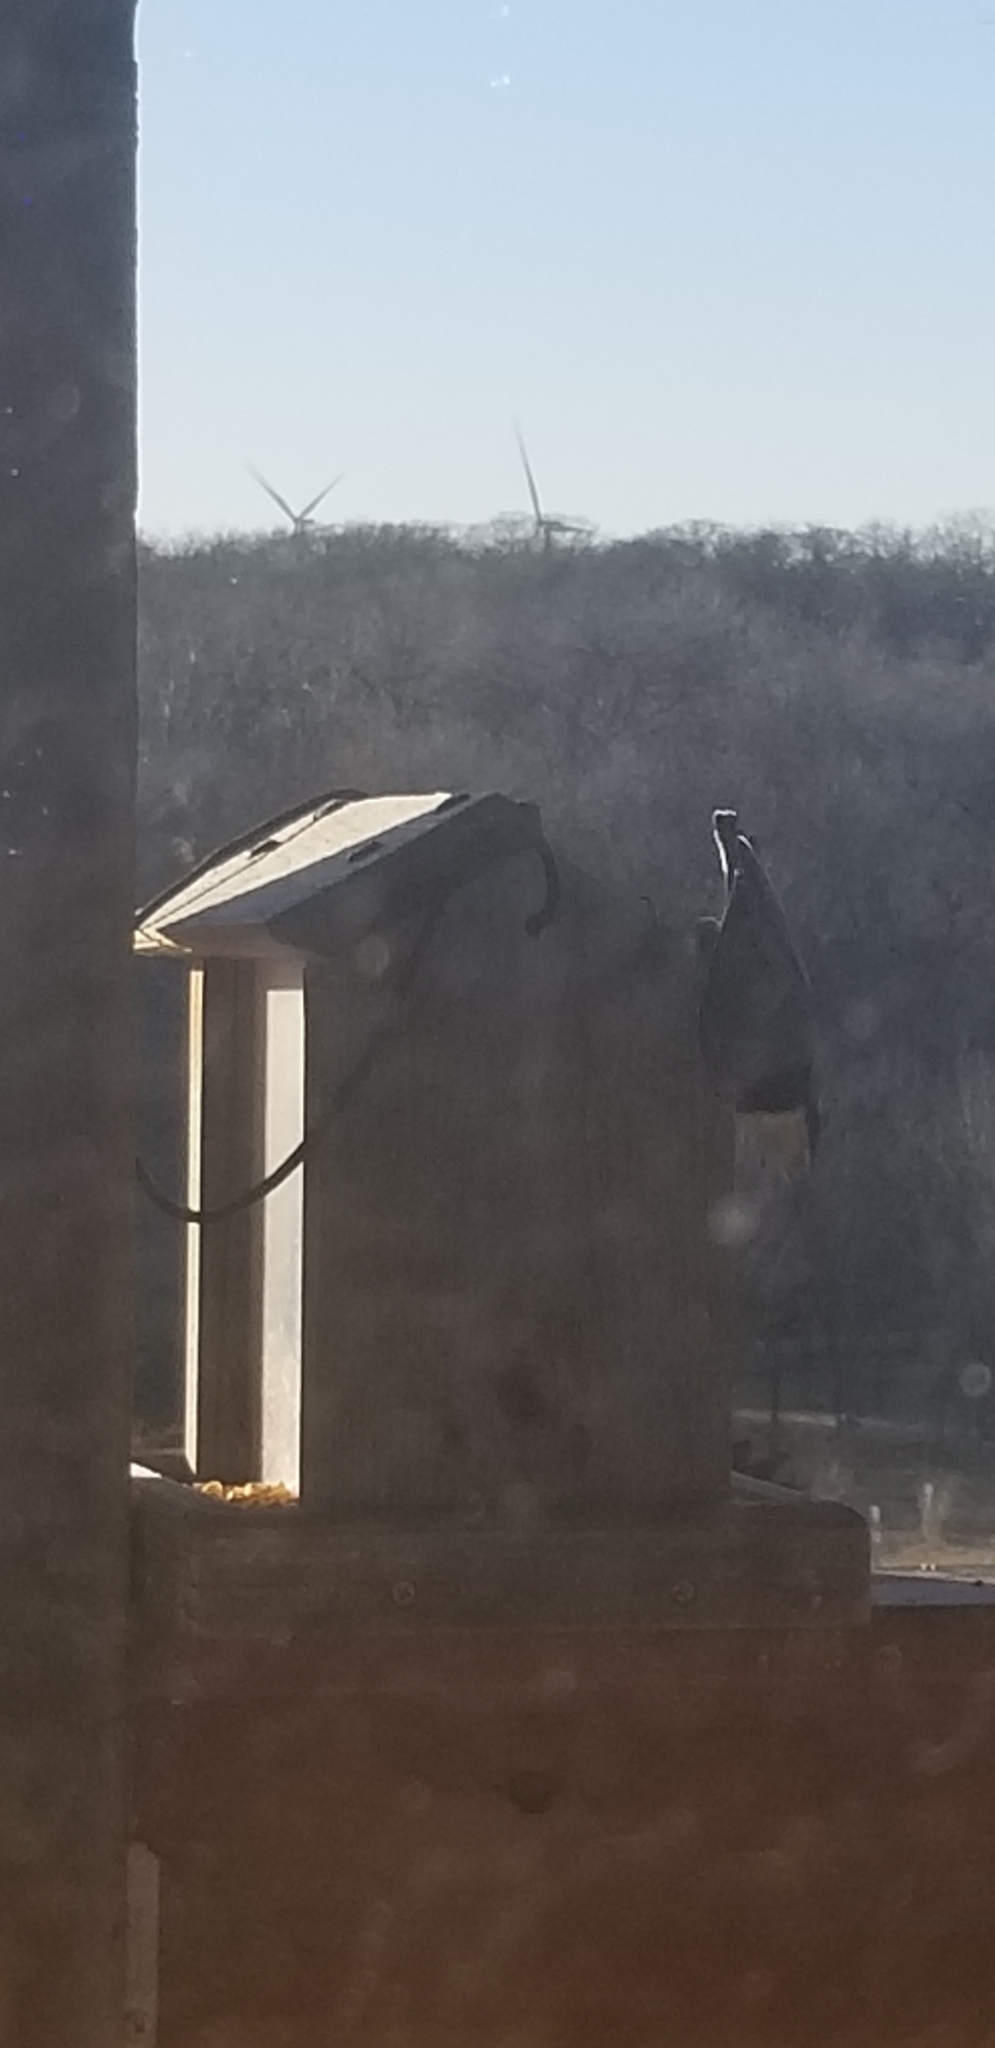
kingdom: Animalia
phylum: Chordata
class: Aves
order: Passeriformes
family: Sittidae
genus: Sitta
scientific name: Sitta carolinensis
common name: White-breasted nuthatch
